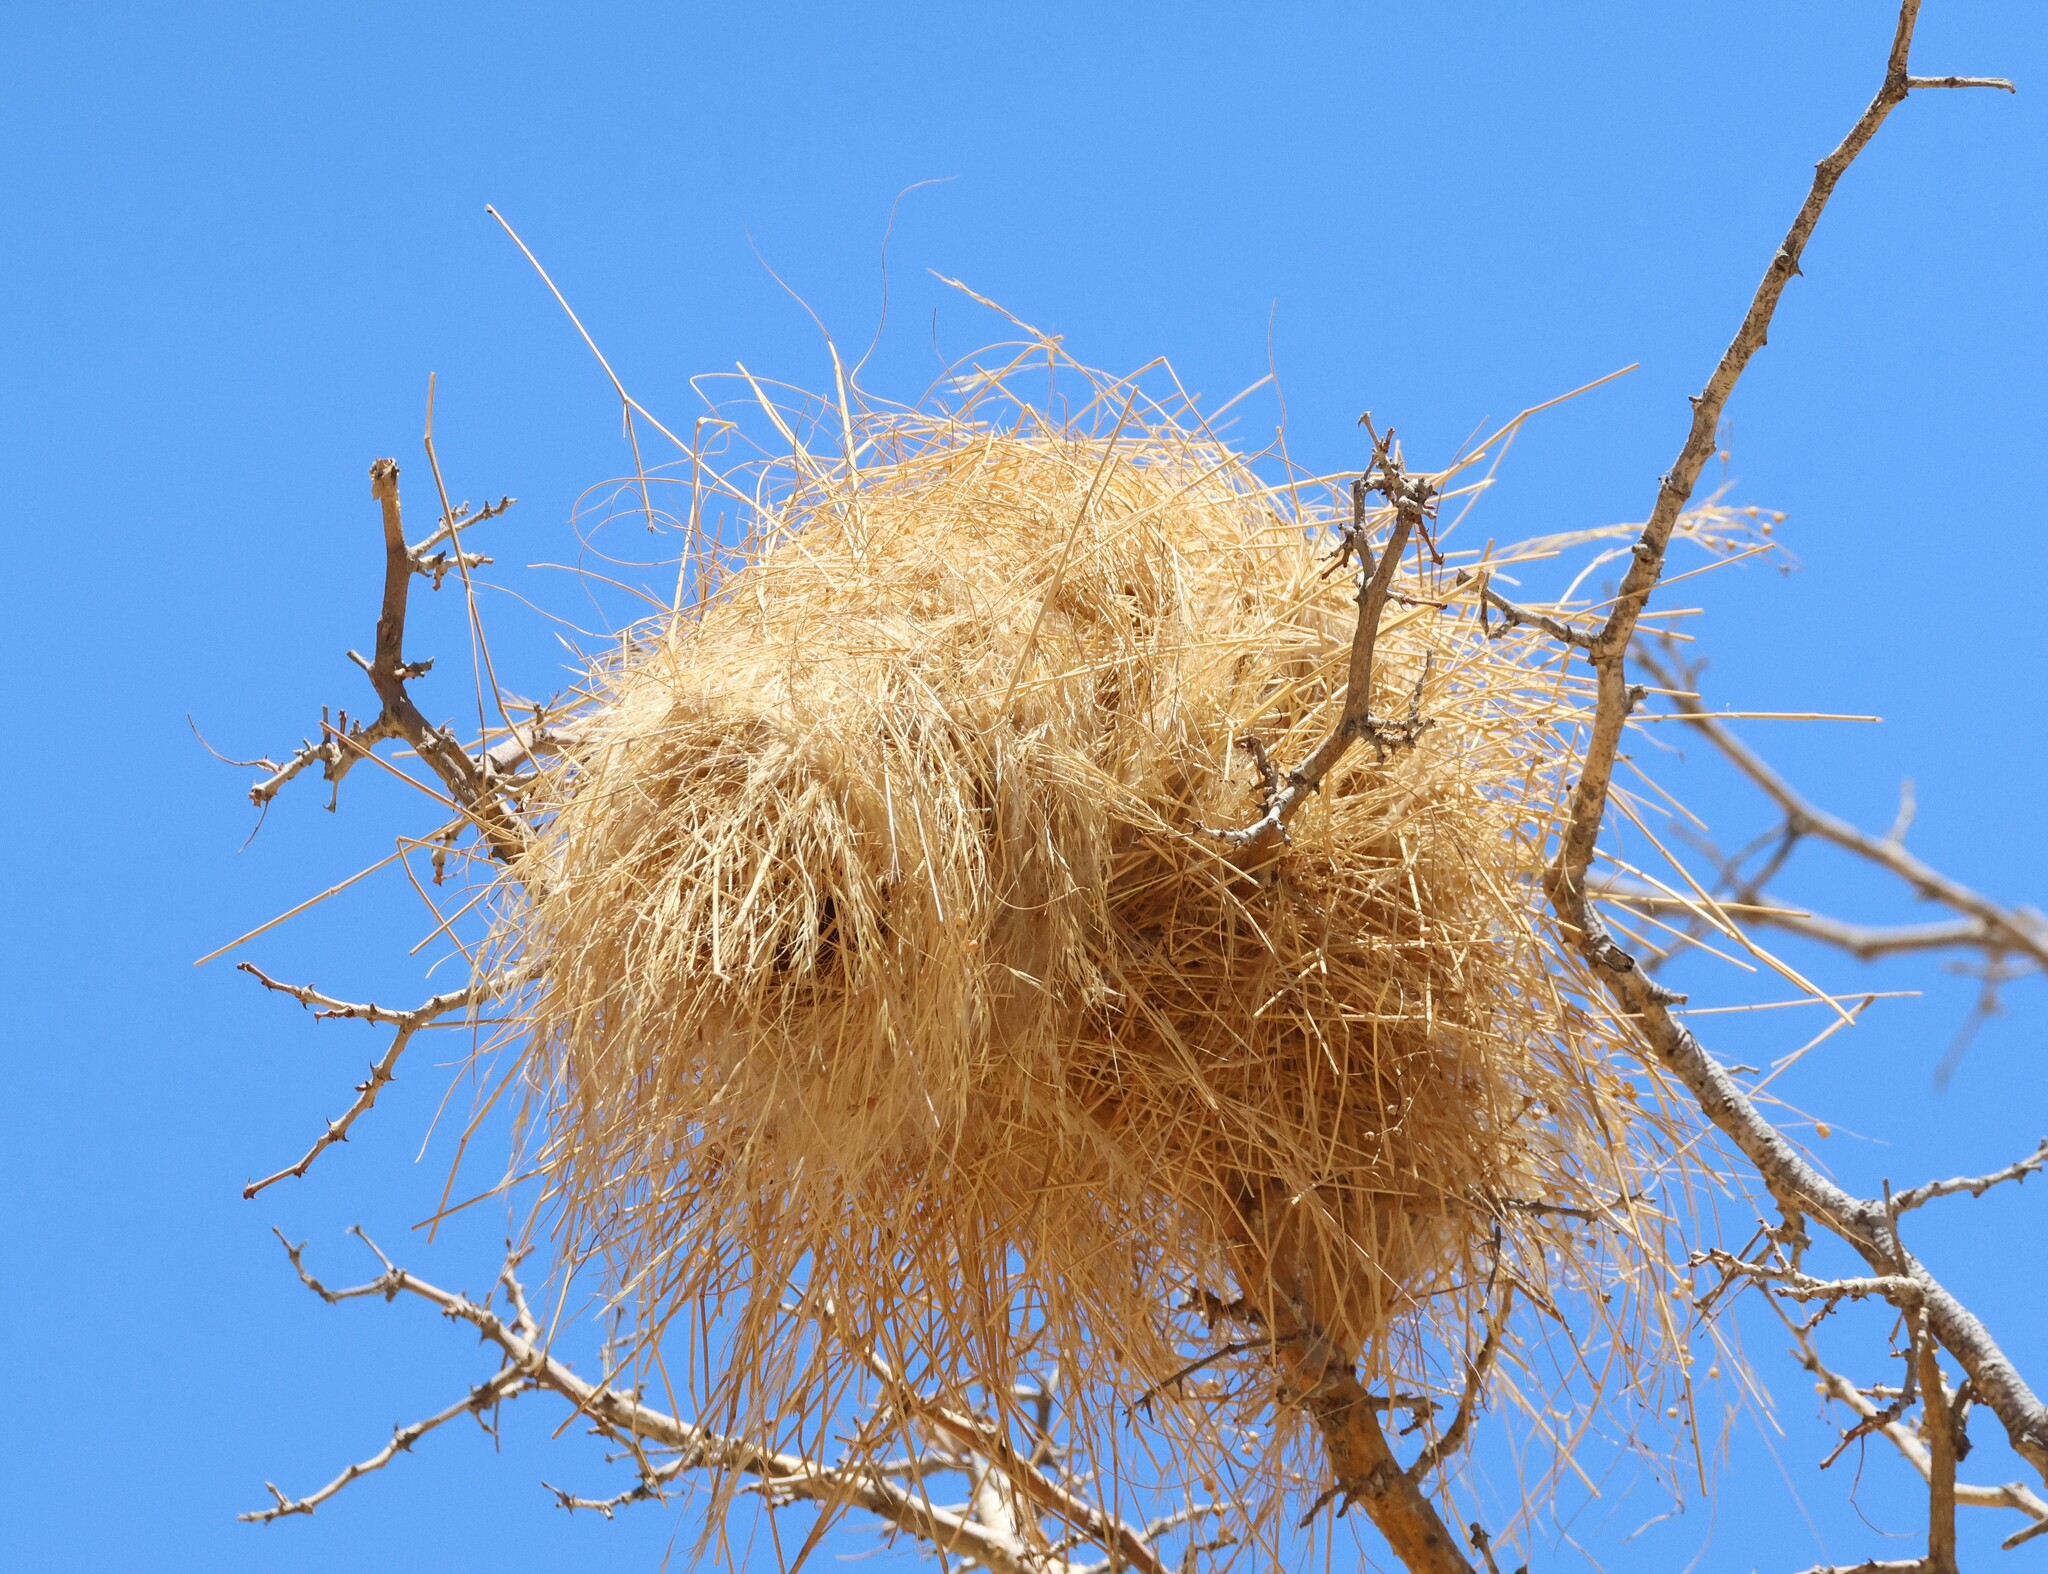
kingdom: Animalia
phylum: Chordata
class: Aves
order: Passeriformes
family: Passeridae
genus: Plocepasser
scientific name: Plocepasser mahali
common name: White-browed sparrow-weaver
